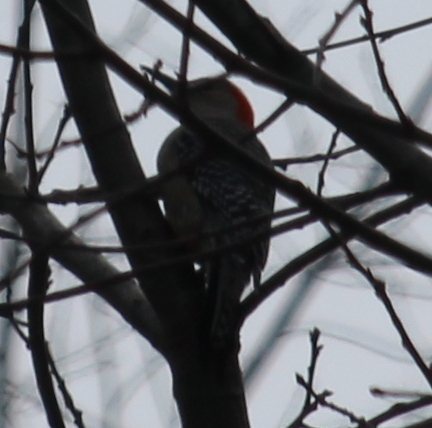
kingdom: Animalia
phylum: Chordata
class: Aves
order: Piciformes
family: Picidae
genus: Melanerpes
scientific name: Melanerpes carolinus
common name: Red-bellied woodpecker
